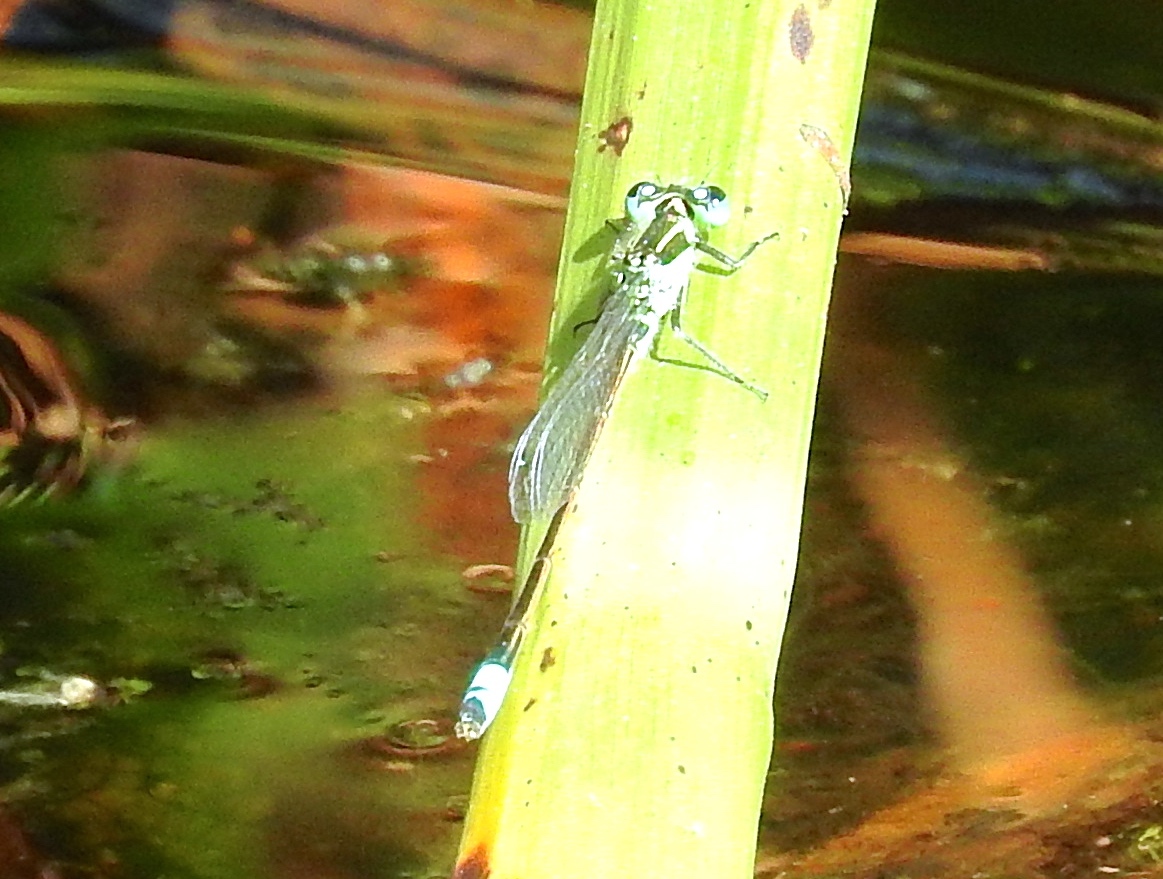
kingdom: Animalia
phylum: Arthropoda
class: Insecta
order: Odonata
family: Coenagrionidae
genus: Ischnura
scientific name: Ischnura
